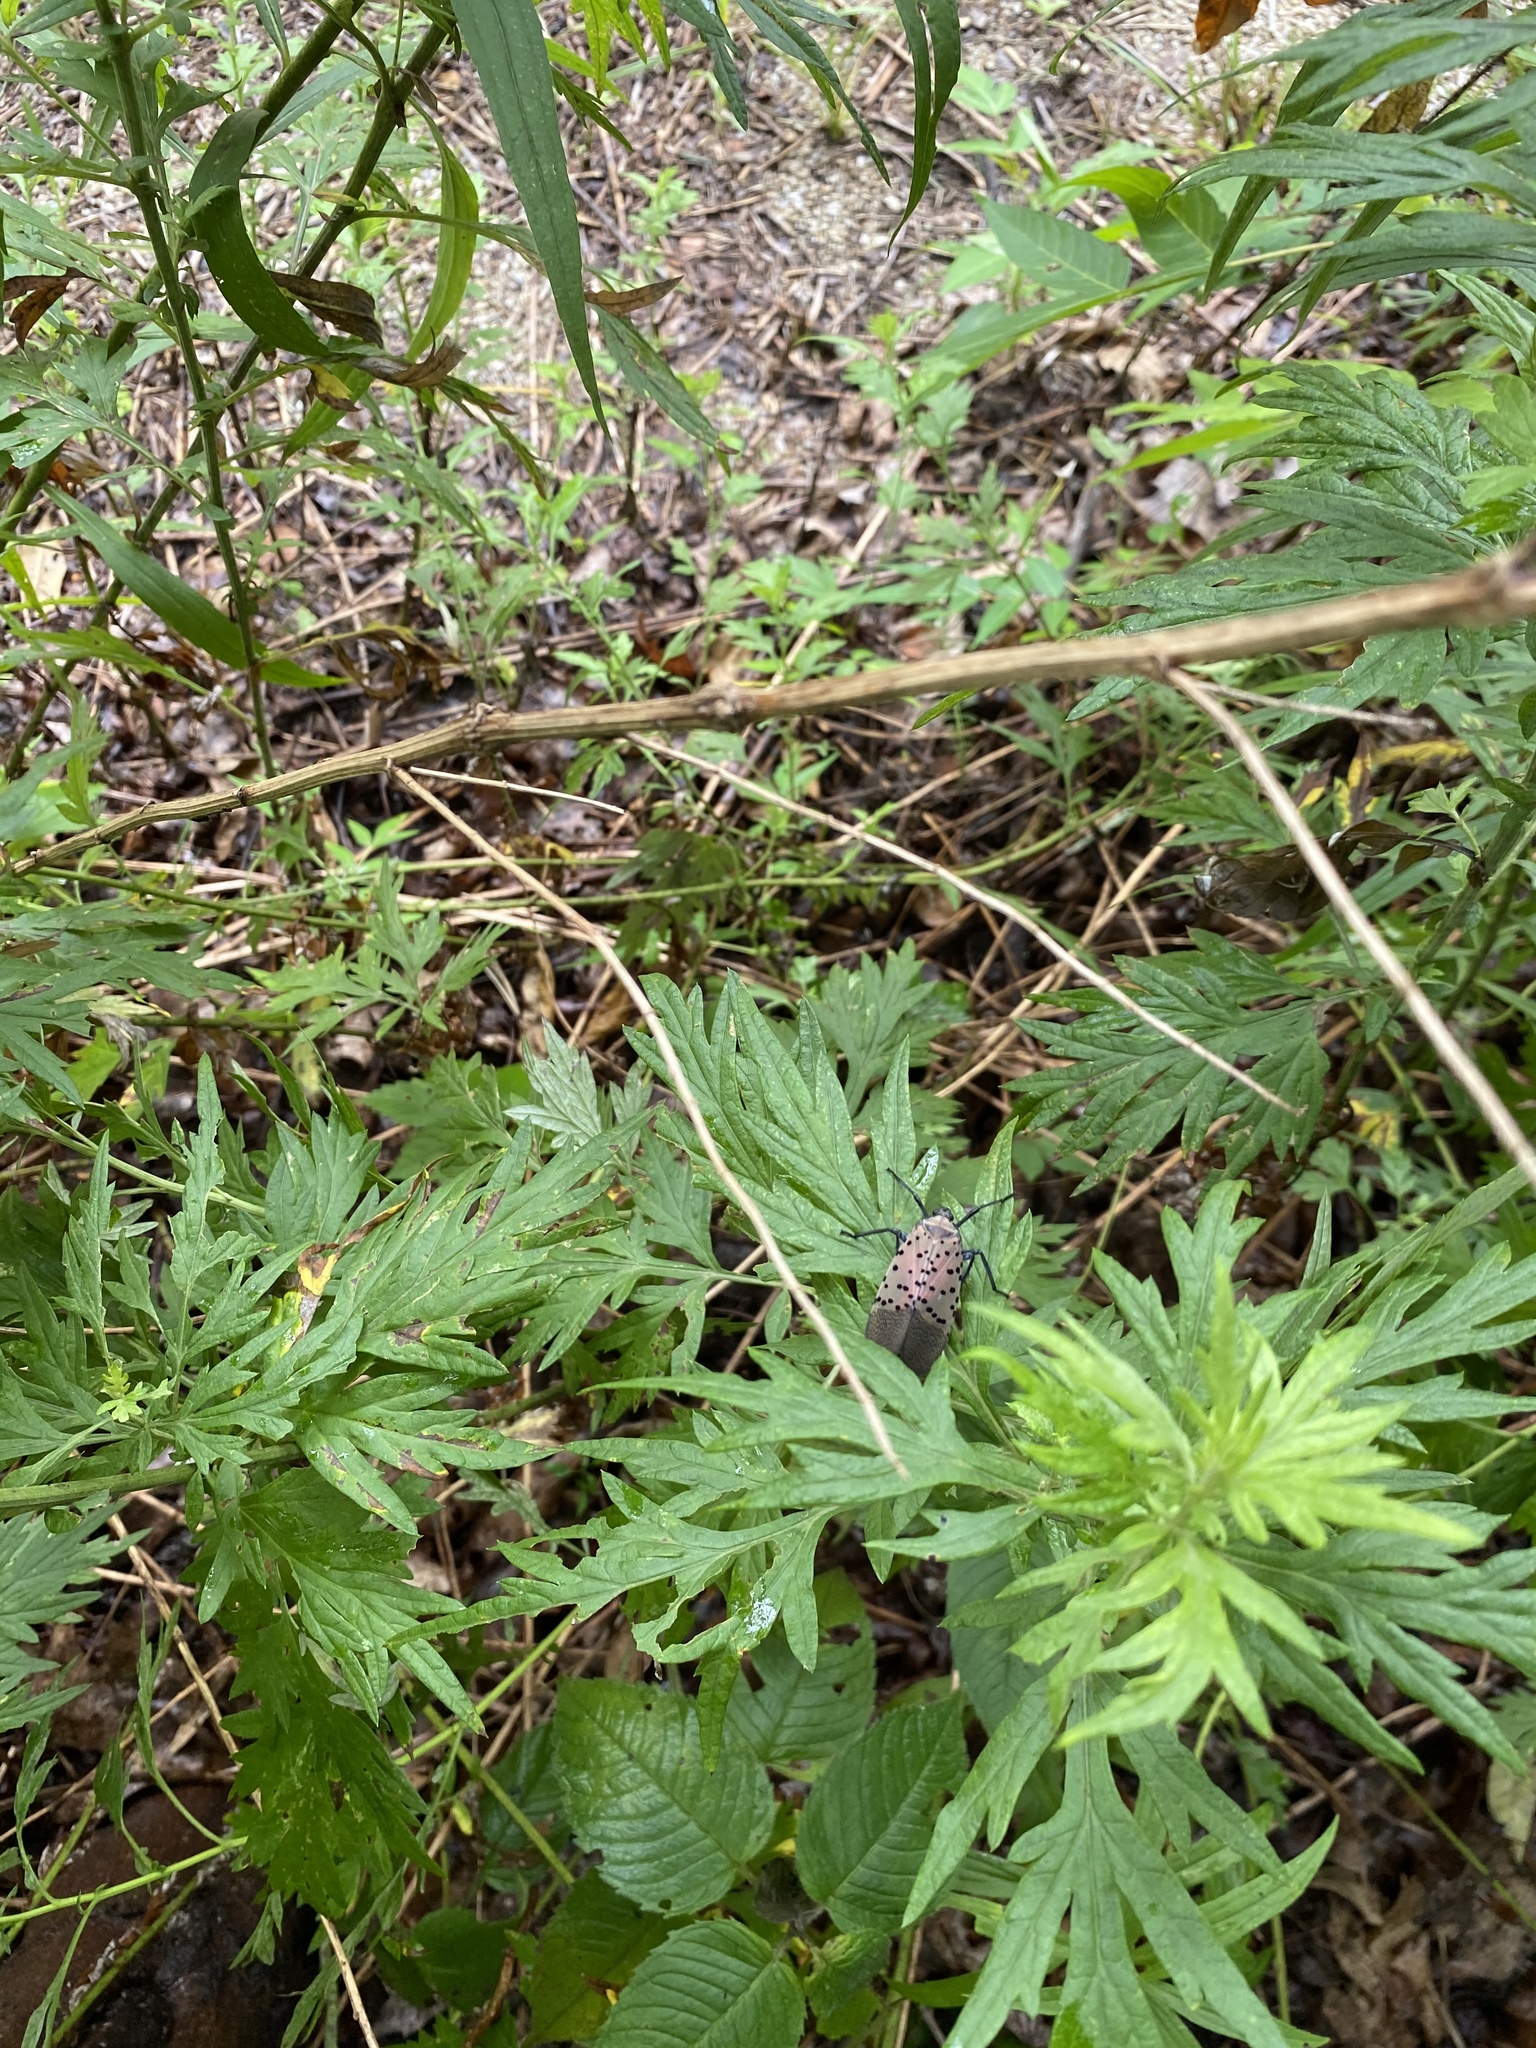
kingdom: Animalia
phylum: Arthropoda
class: Insecta
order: Hemiptera
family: Fulgoridae
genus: Lycorma
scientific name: Lycorma delicatula
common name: Spotted lanternfly
